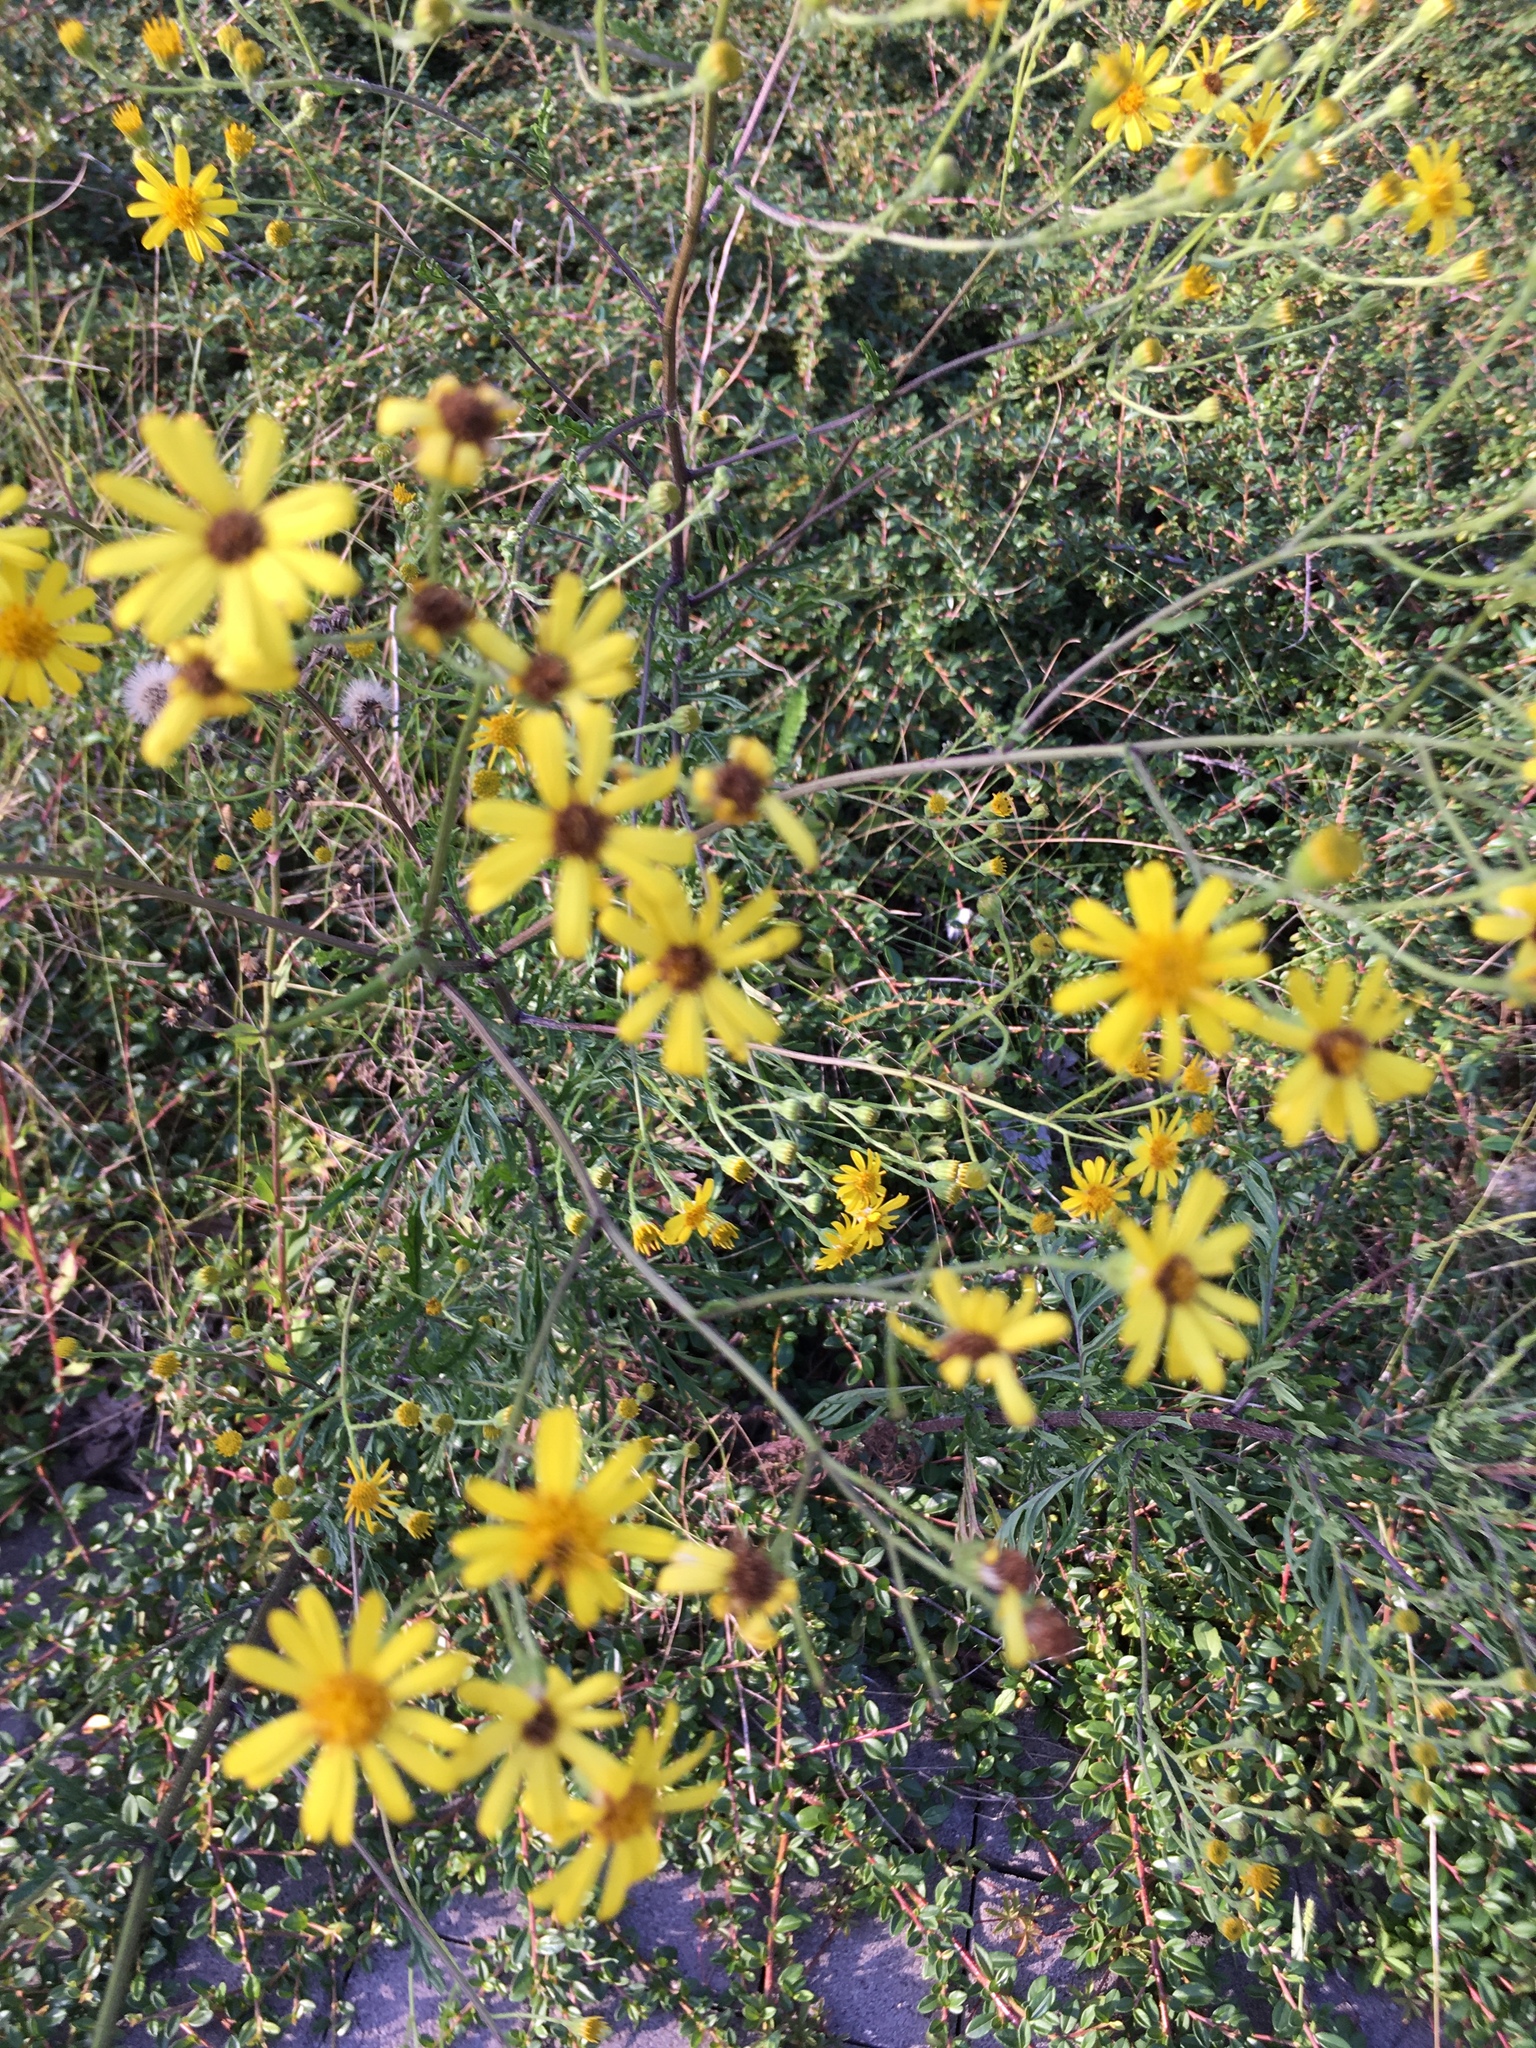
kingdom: Plantae
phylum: Tracheophyta
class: Magnoliopsida
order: Asterales
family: Asteraceae
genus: Jacobaea
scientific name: Jacobaea erucifolia
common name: Hoary ragwort
